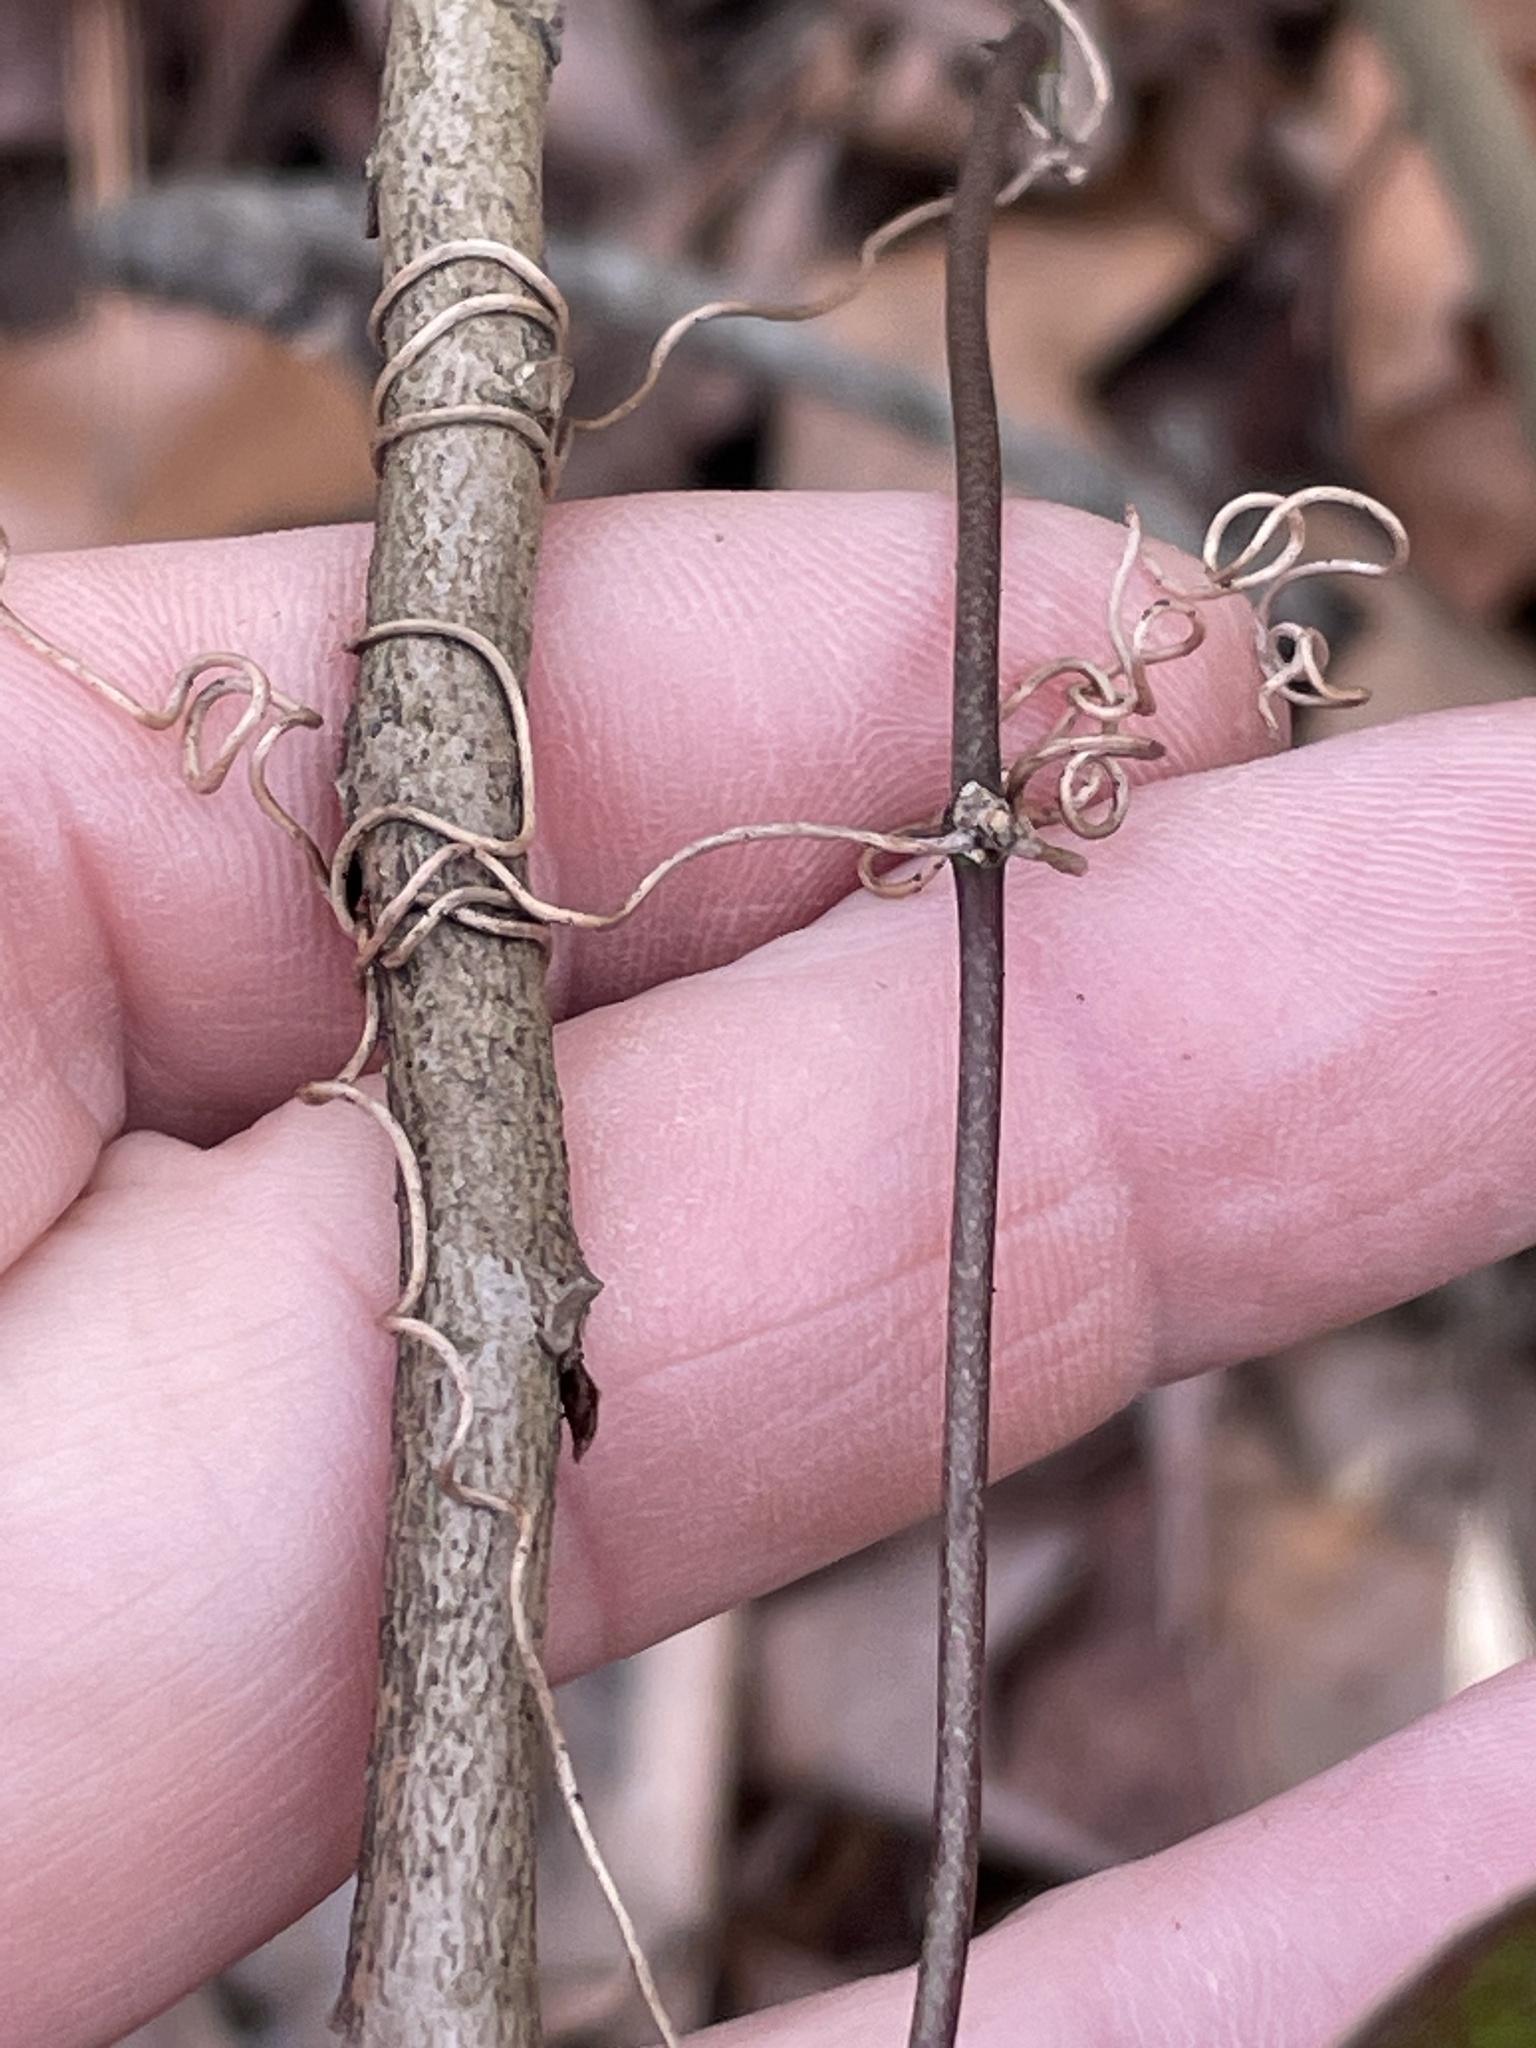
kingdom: Plantae
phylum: Tracheophyta
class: Liliopsida
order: Liliales
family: Smilacaceae
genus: Smilax
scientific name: Smilax glauca
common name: Cat greenbrier
